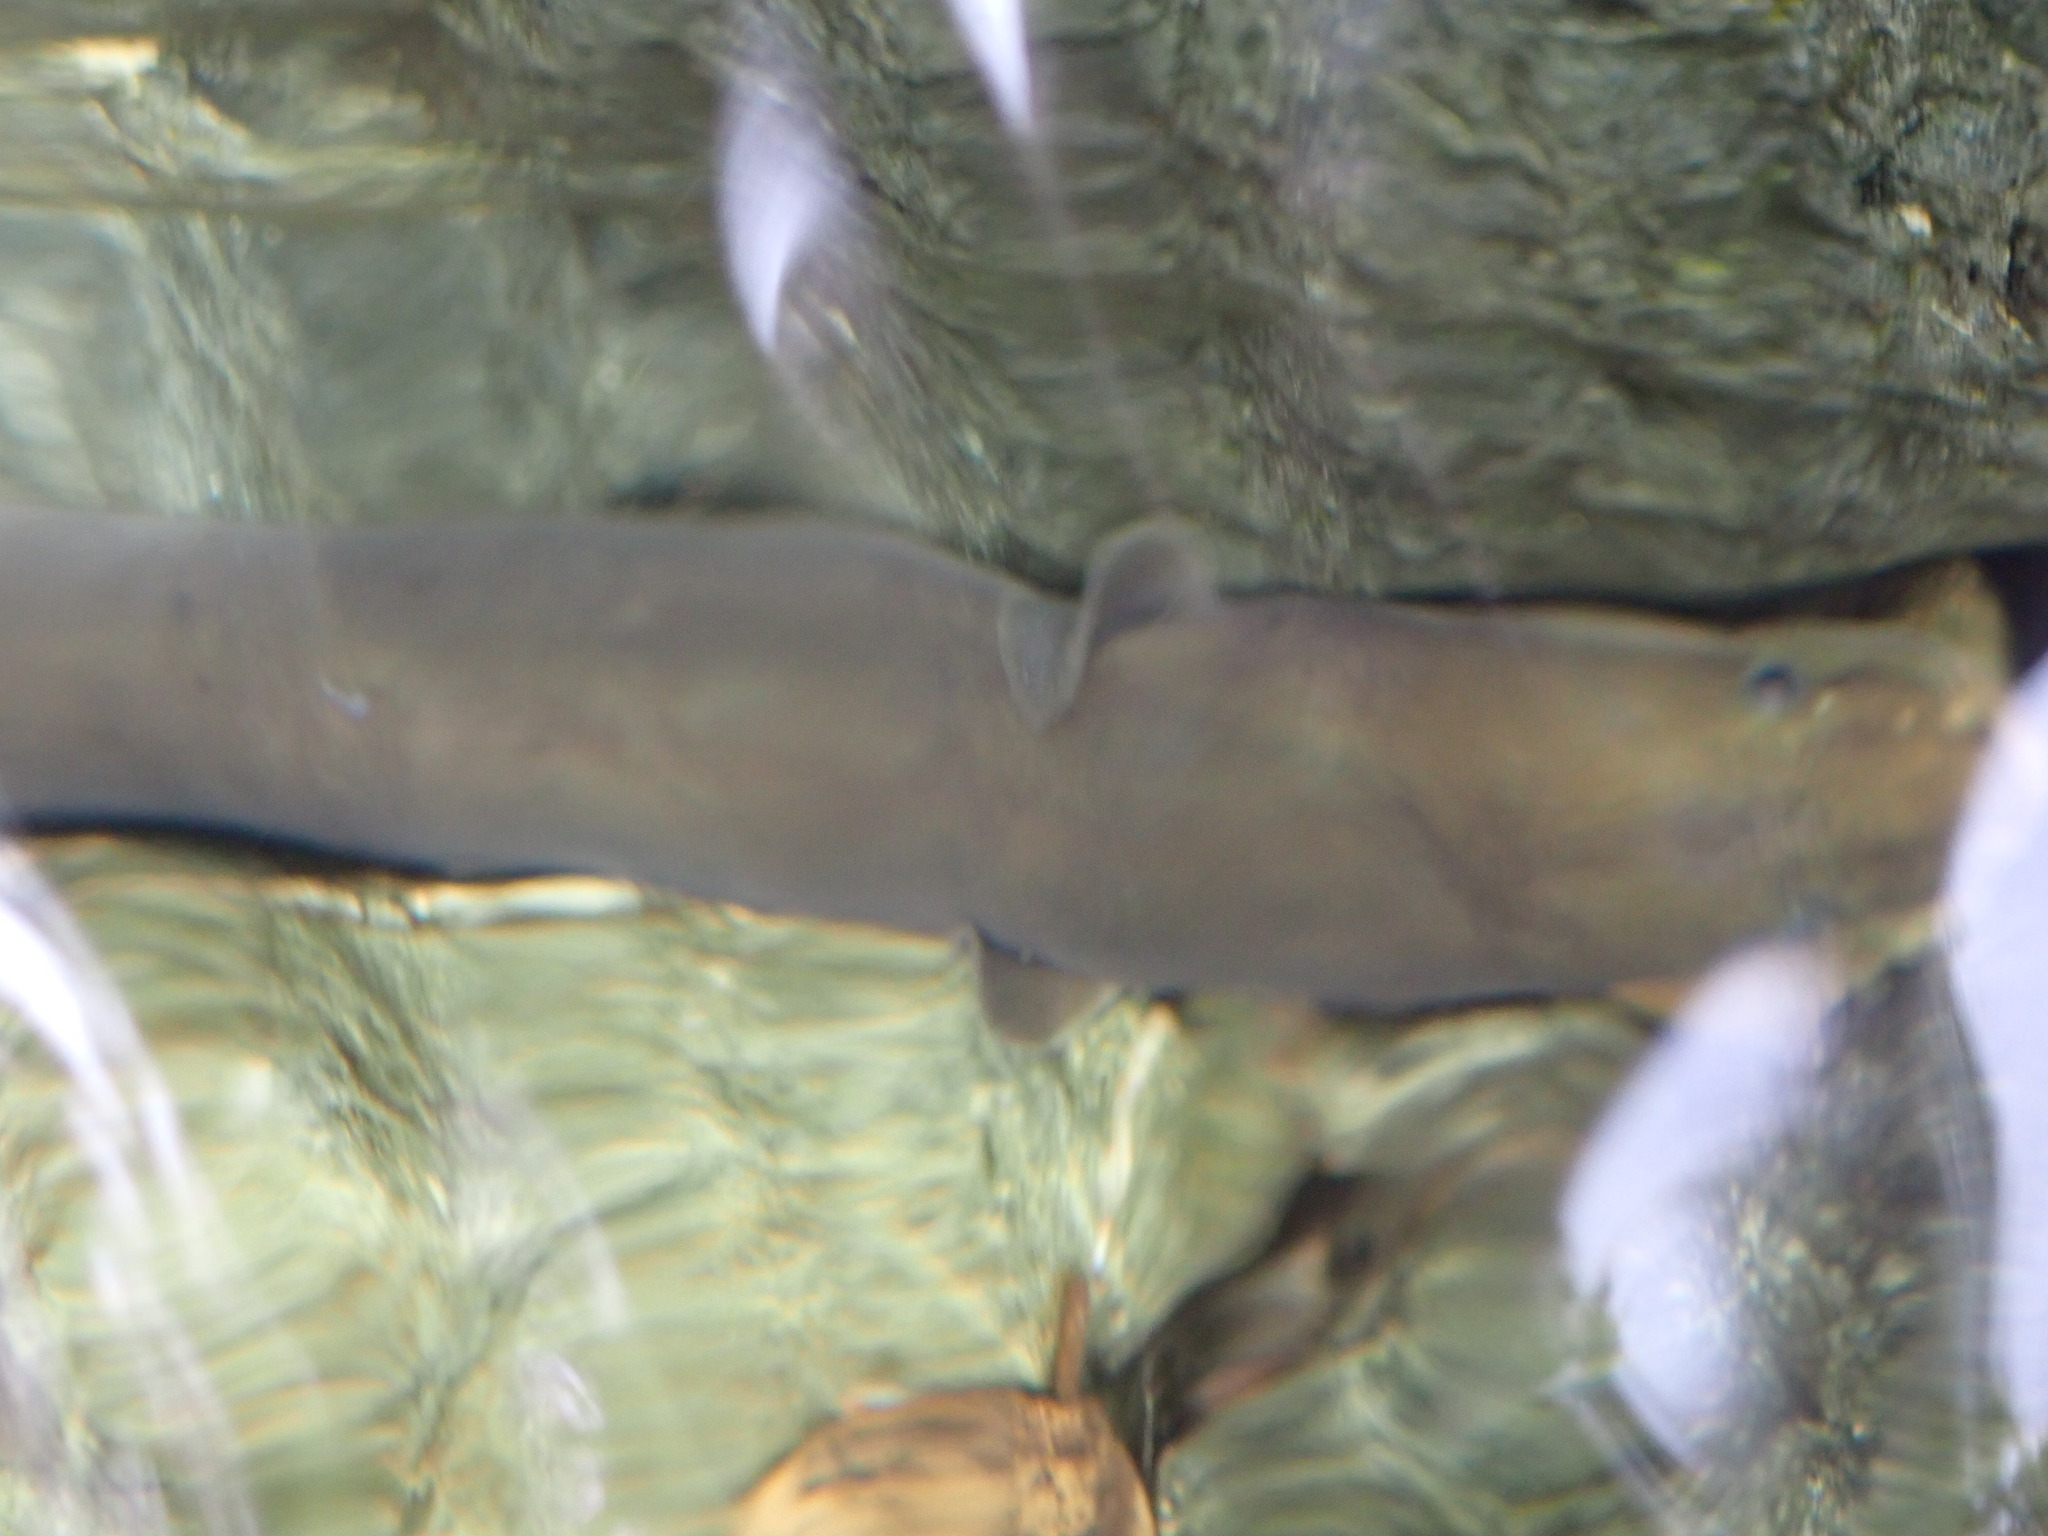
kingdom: Animalia
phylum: Chordata
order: Anguilliformes
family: Anguillidae
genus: Anguilla
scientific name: Anguilla australis
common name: Shortfin eel
